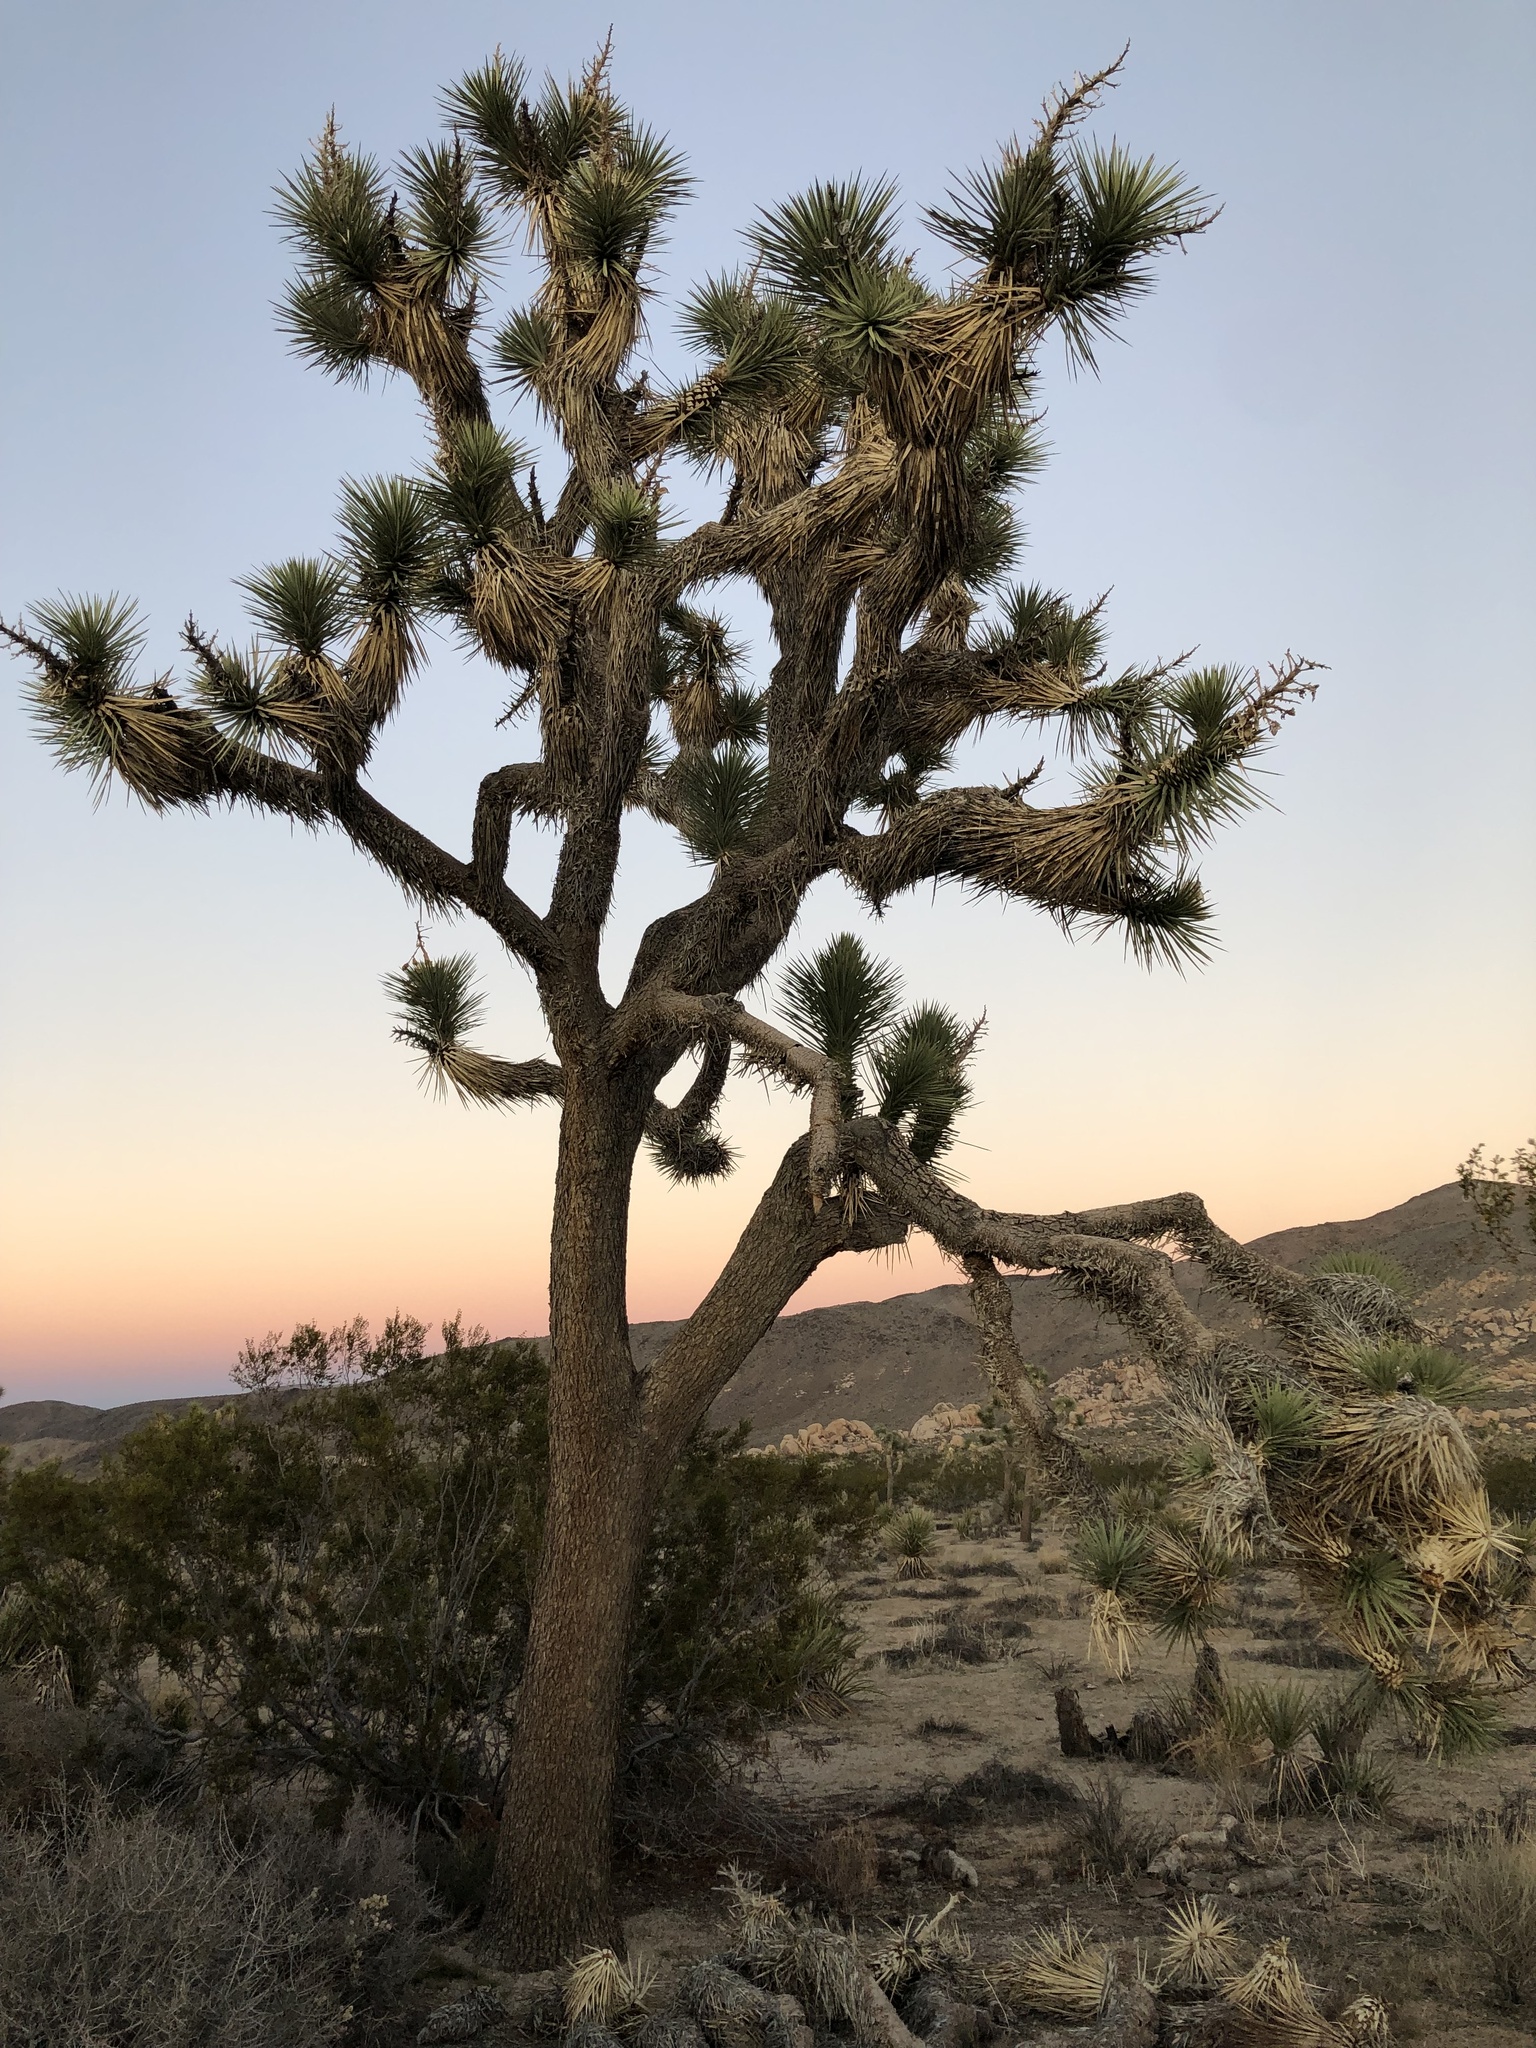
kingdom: Plantae
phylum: Tracheophyta
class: Liliopsida
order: Asparagales
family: Asparagaceae
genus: Yucca
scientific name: Yucca brevifolia
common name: Joshua tree
